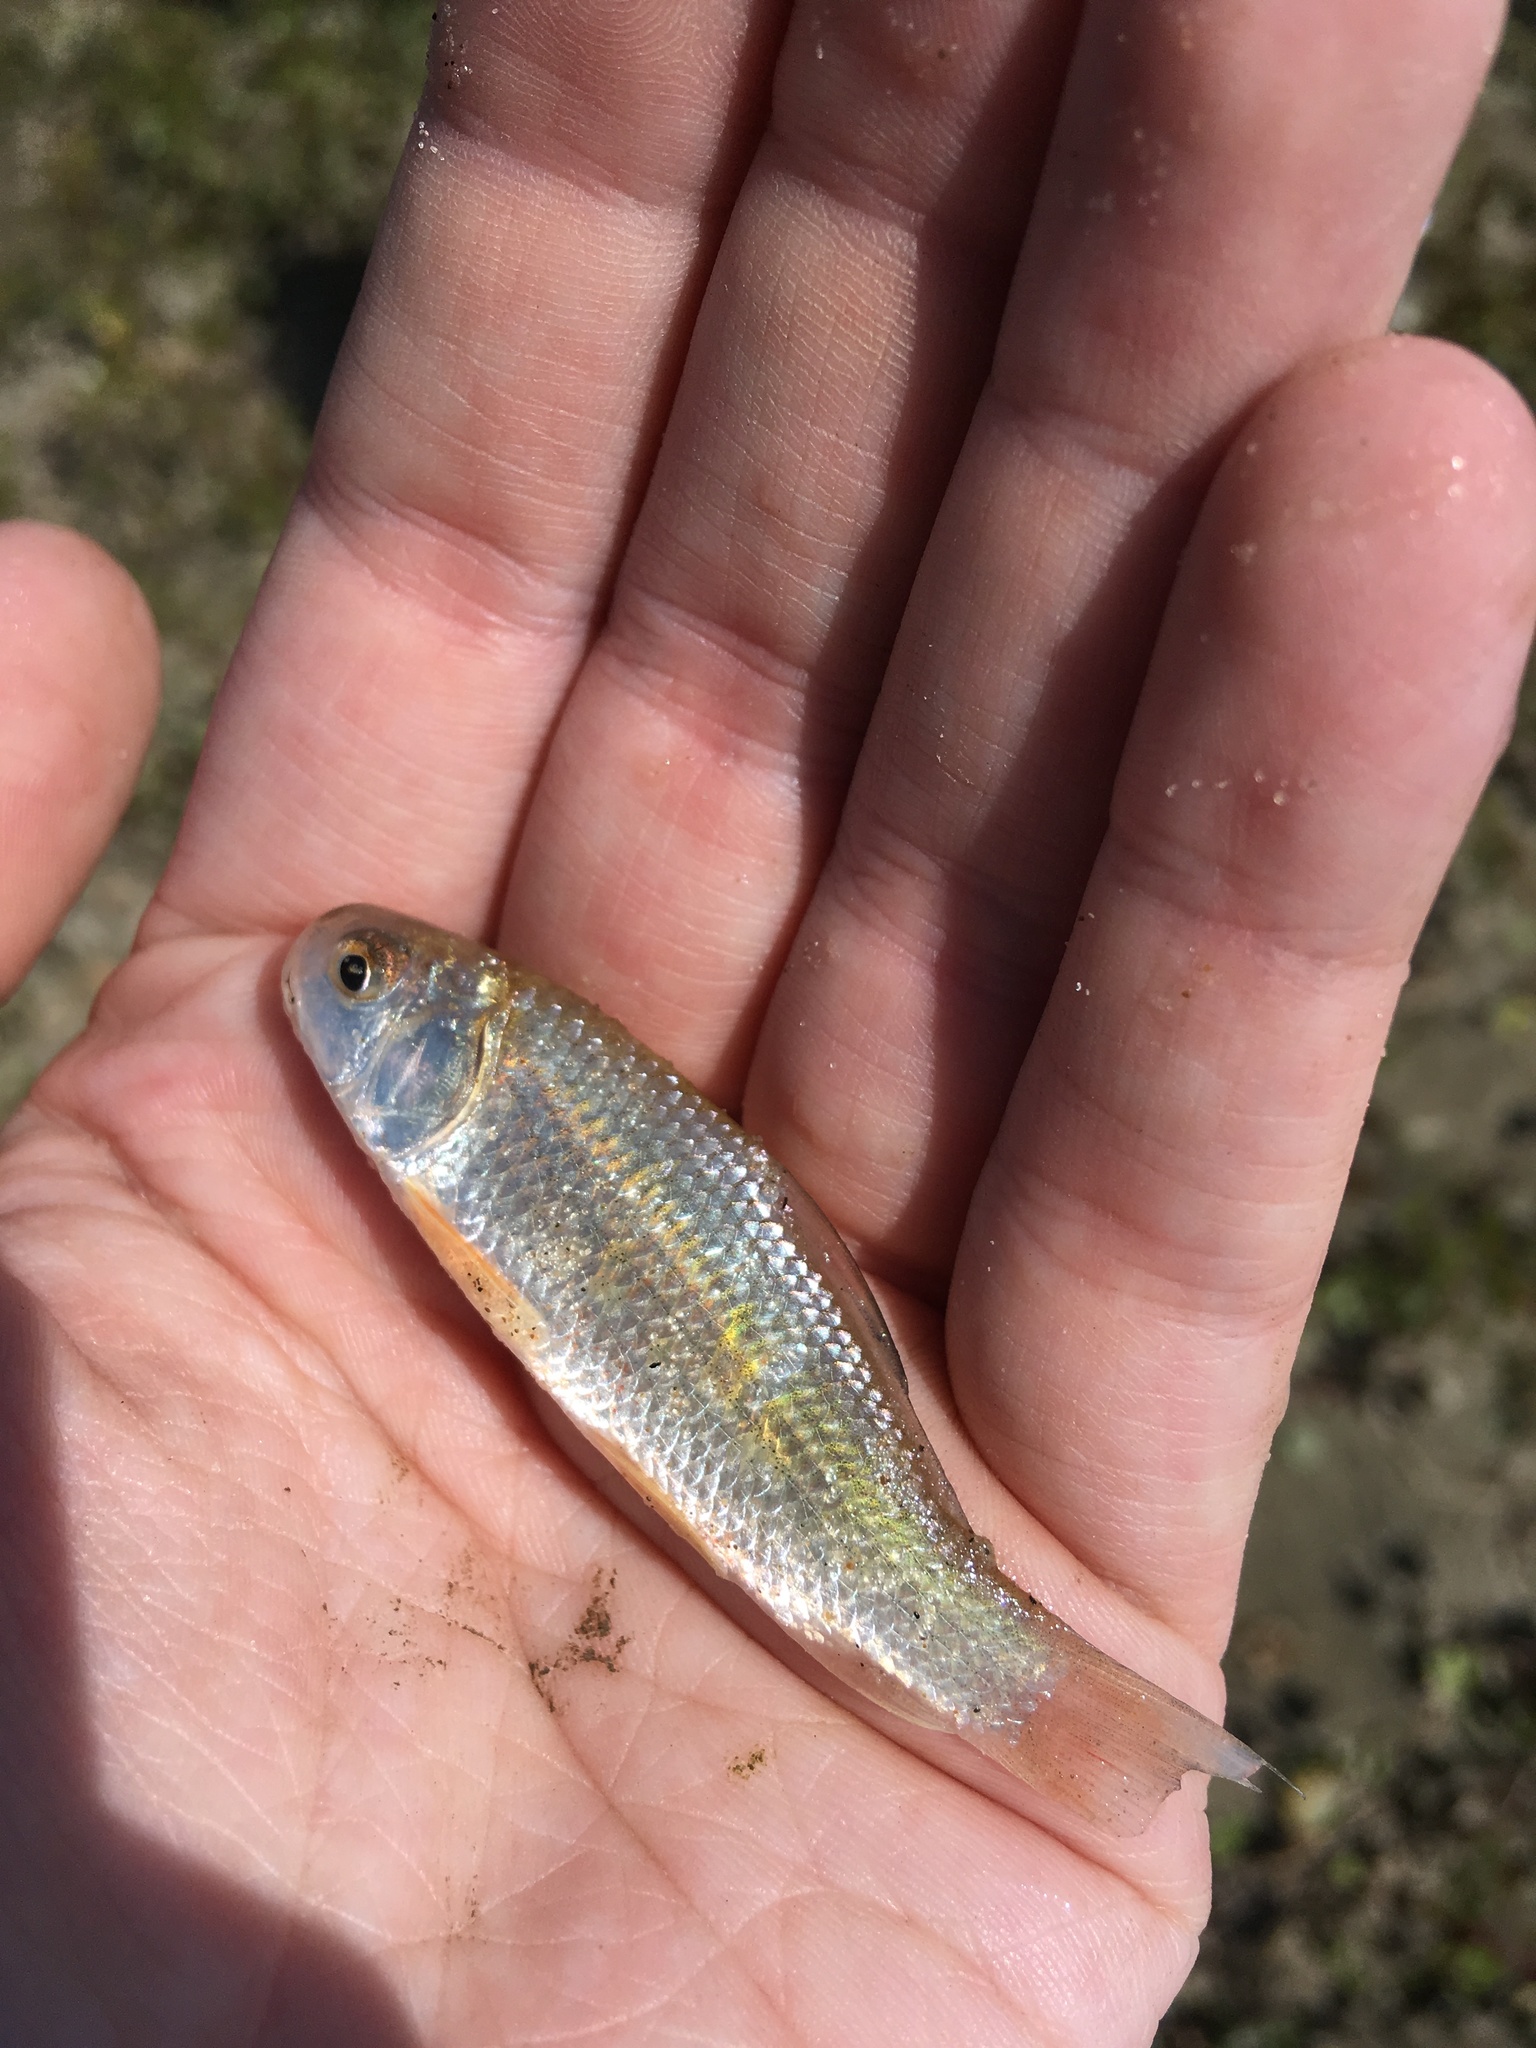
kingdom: Animalia
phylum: Chordata
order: Cypriniformes
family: Catostomidae
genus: Carpiodes
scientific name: Carpiodes carpio
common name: River carpsucker
